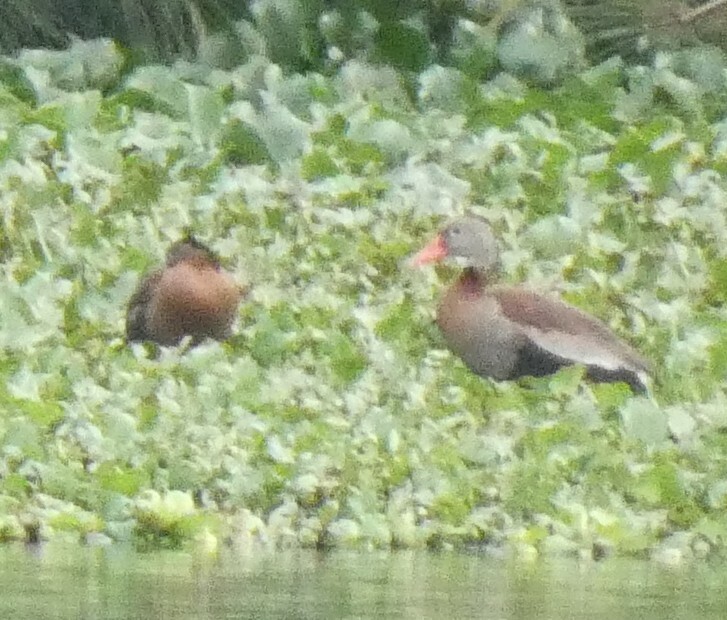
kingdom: Animalia
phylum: Chordata
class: Aves
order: Anseriformes
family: Anatidae
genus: Dendrocygna
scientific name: Dendrocygna autumnalis
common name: Black-bellied whistling duck
